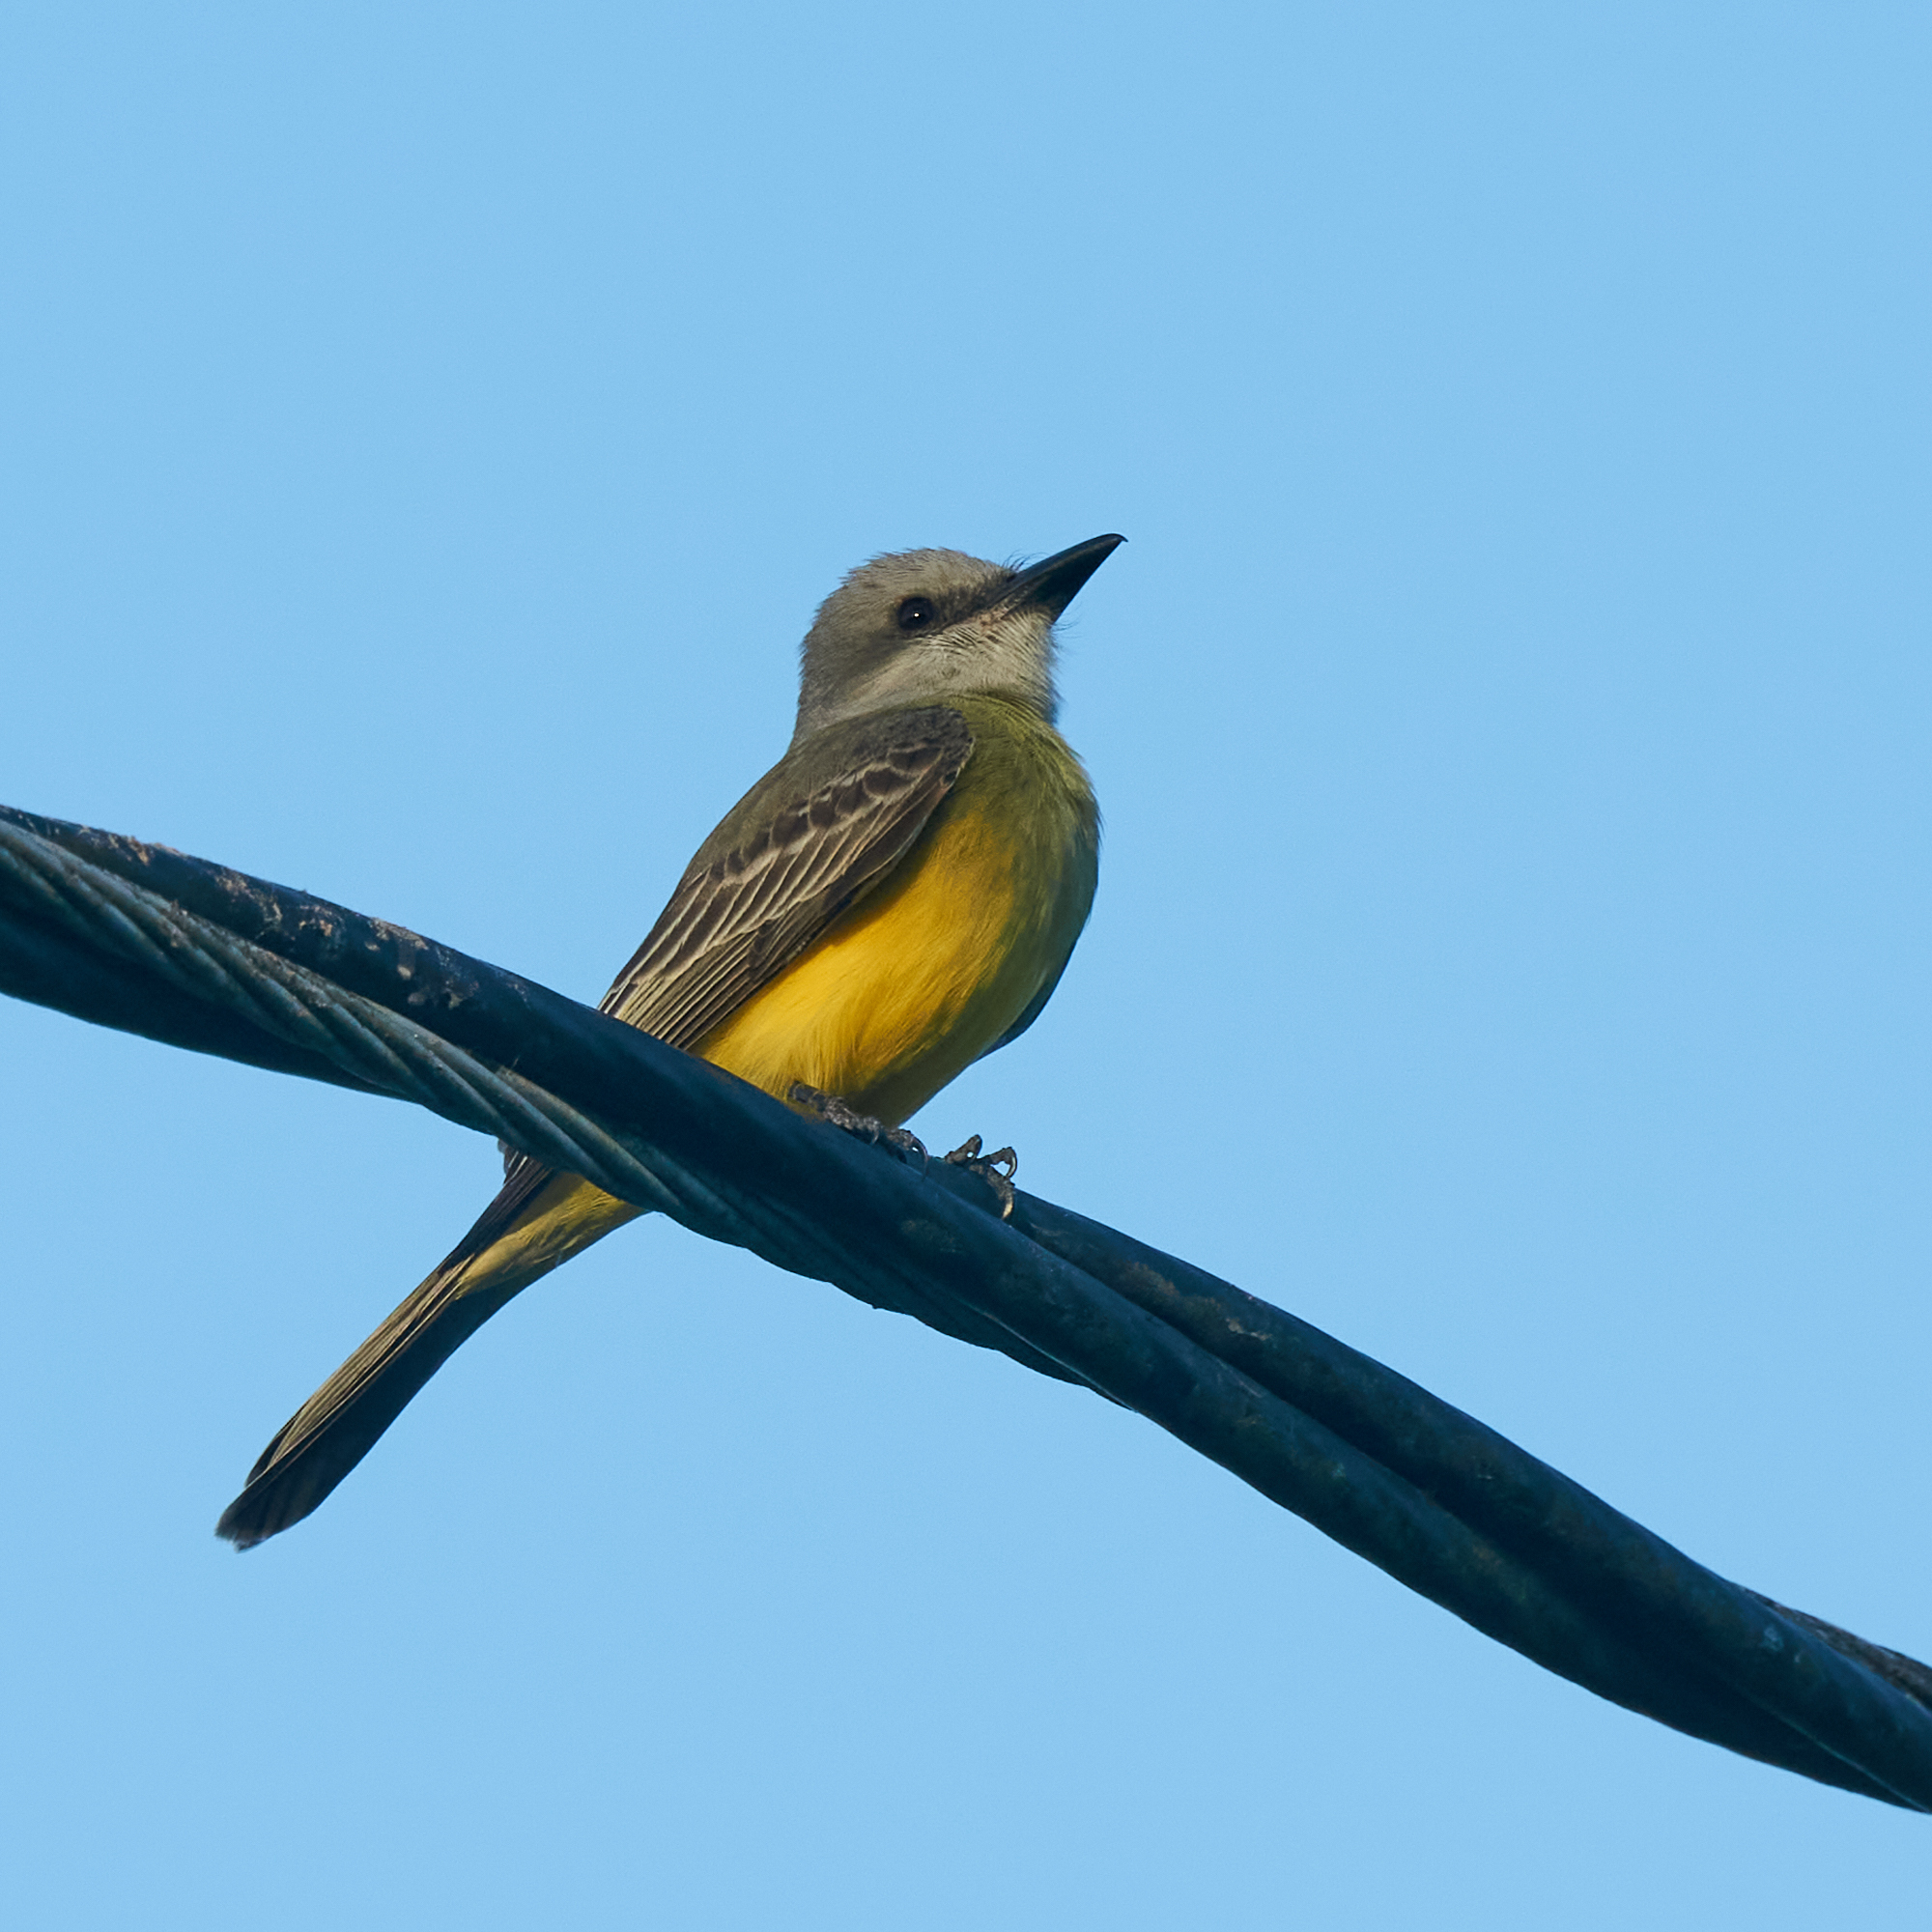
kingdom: Animalia
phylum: Chordata
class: Aves
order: Passeriformes
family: Tyrannidae
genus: Tyrannus
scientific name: Tyrannus melancholicus
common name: Tropical kingbird
